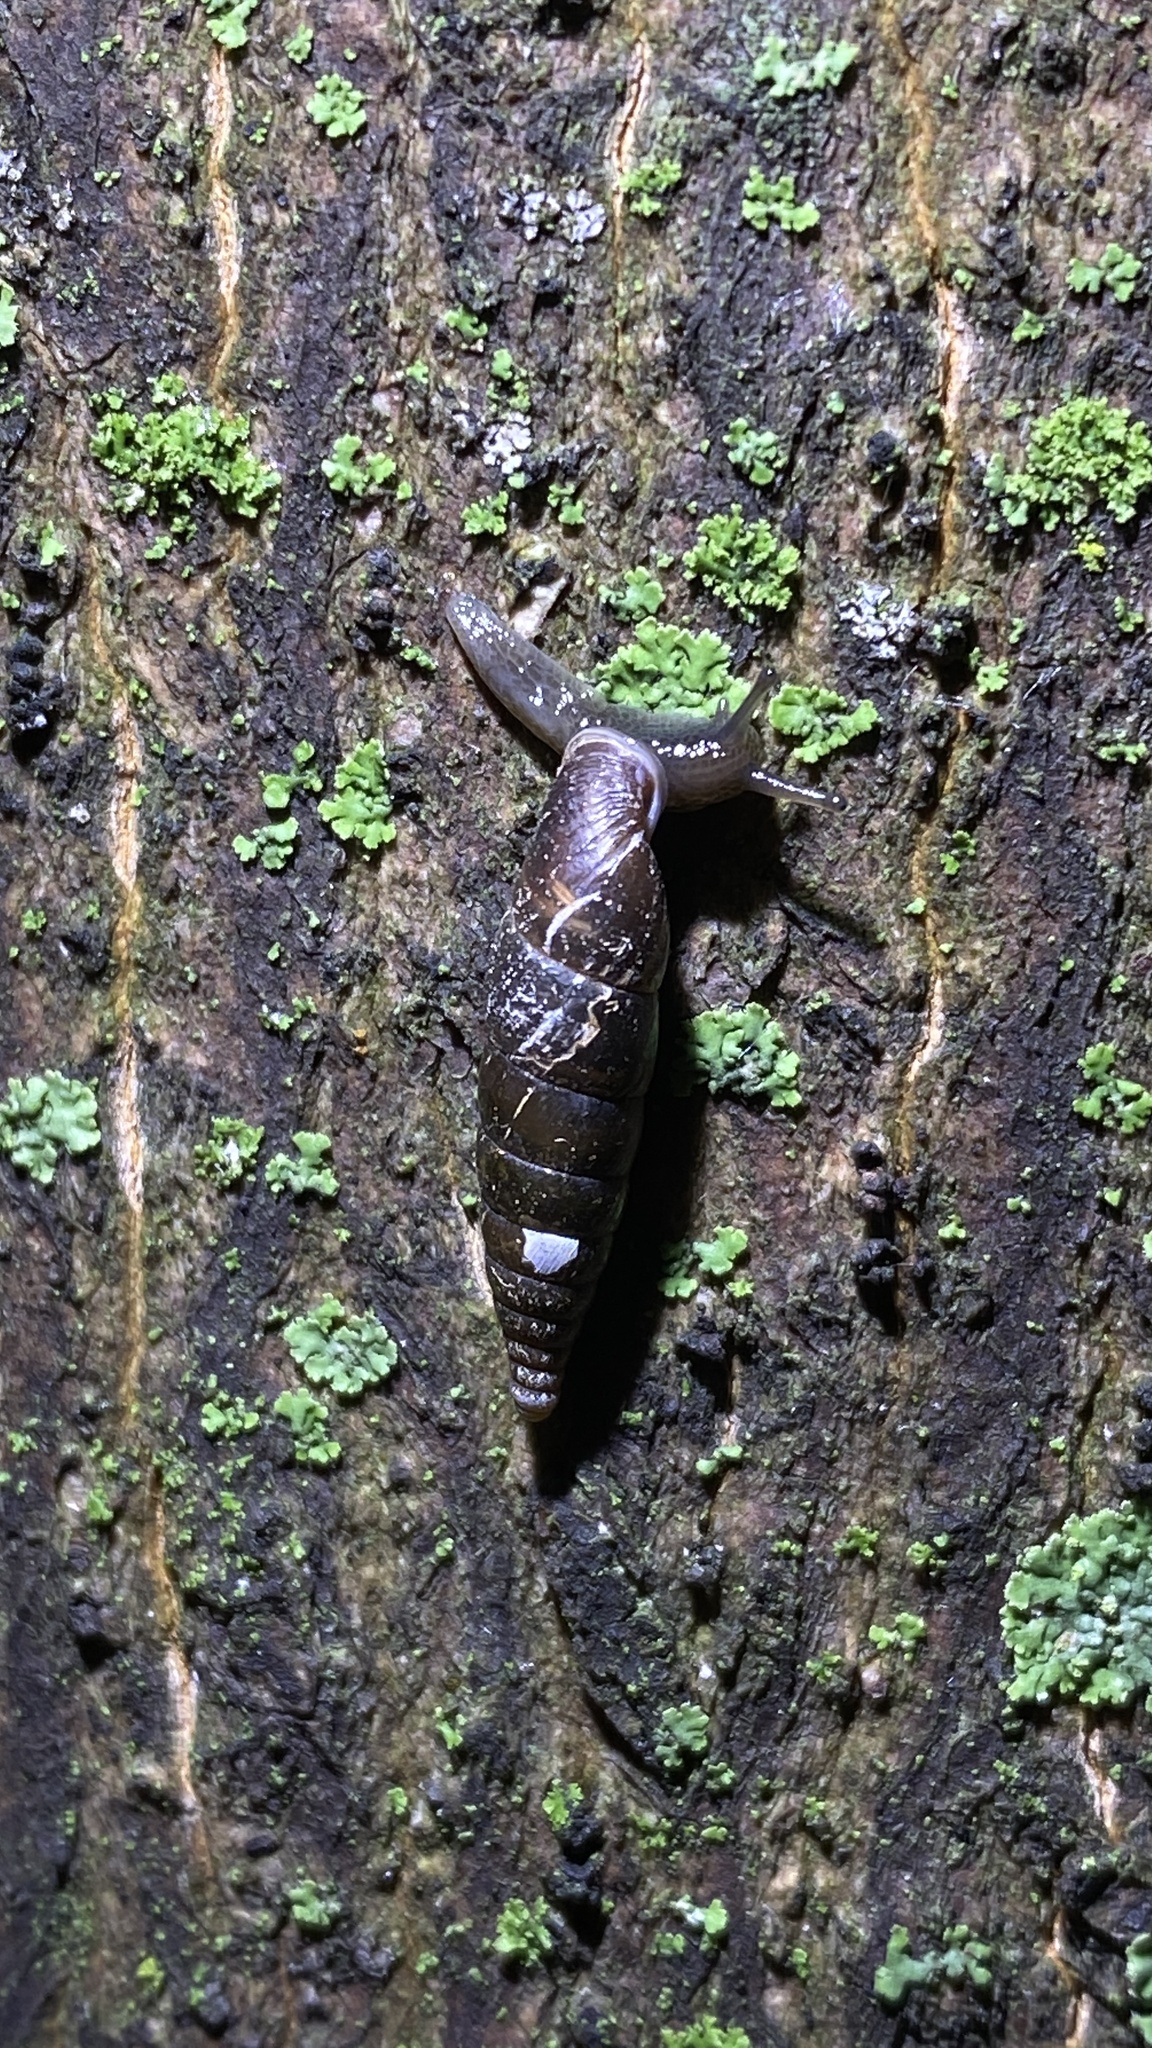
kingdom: Animalia
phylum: Mollusca
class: Gastropoda
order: Stylommatophora
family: Clausiliidae
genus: Cochlodina
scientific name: Cochlodina laminata
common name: Plaited door snail
